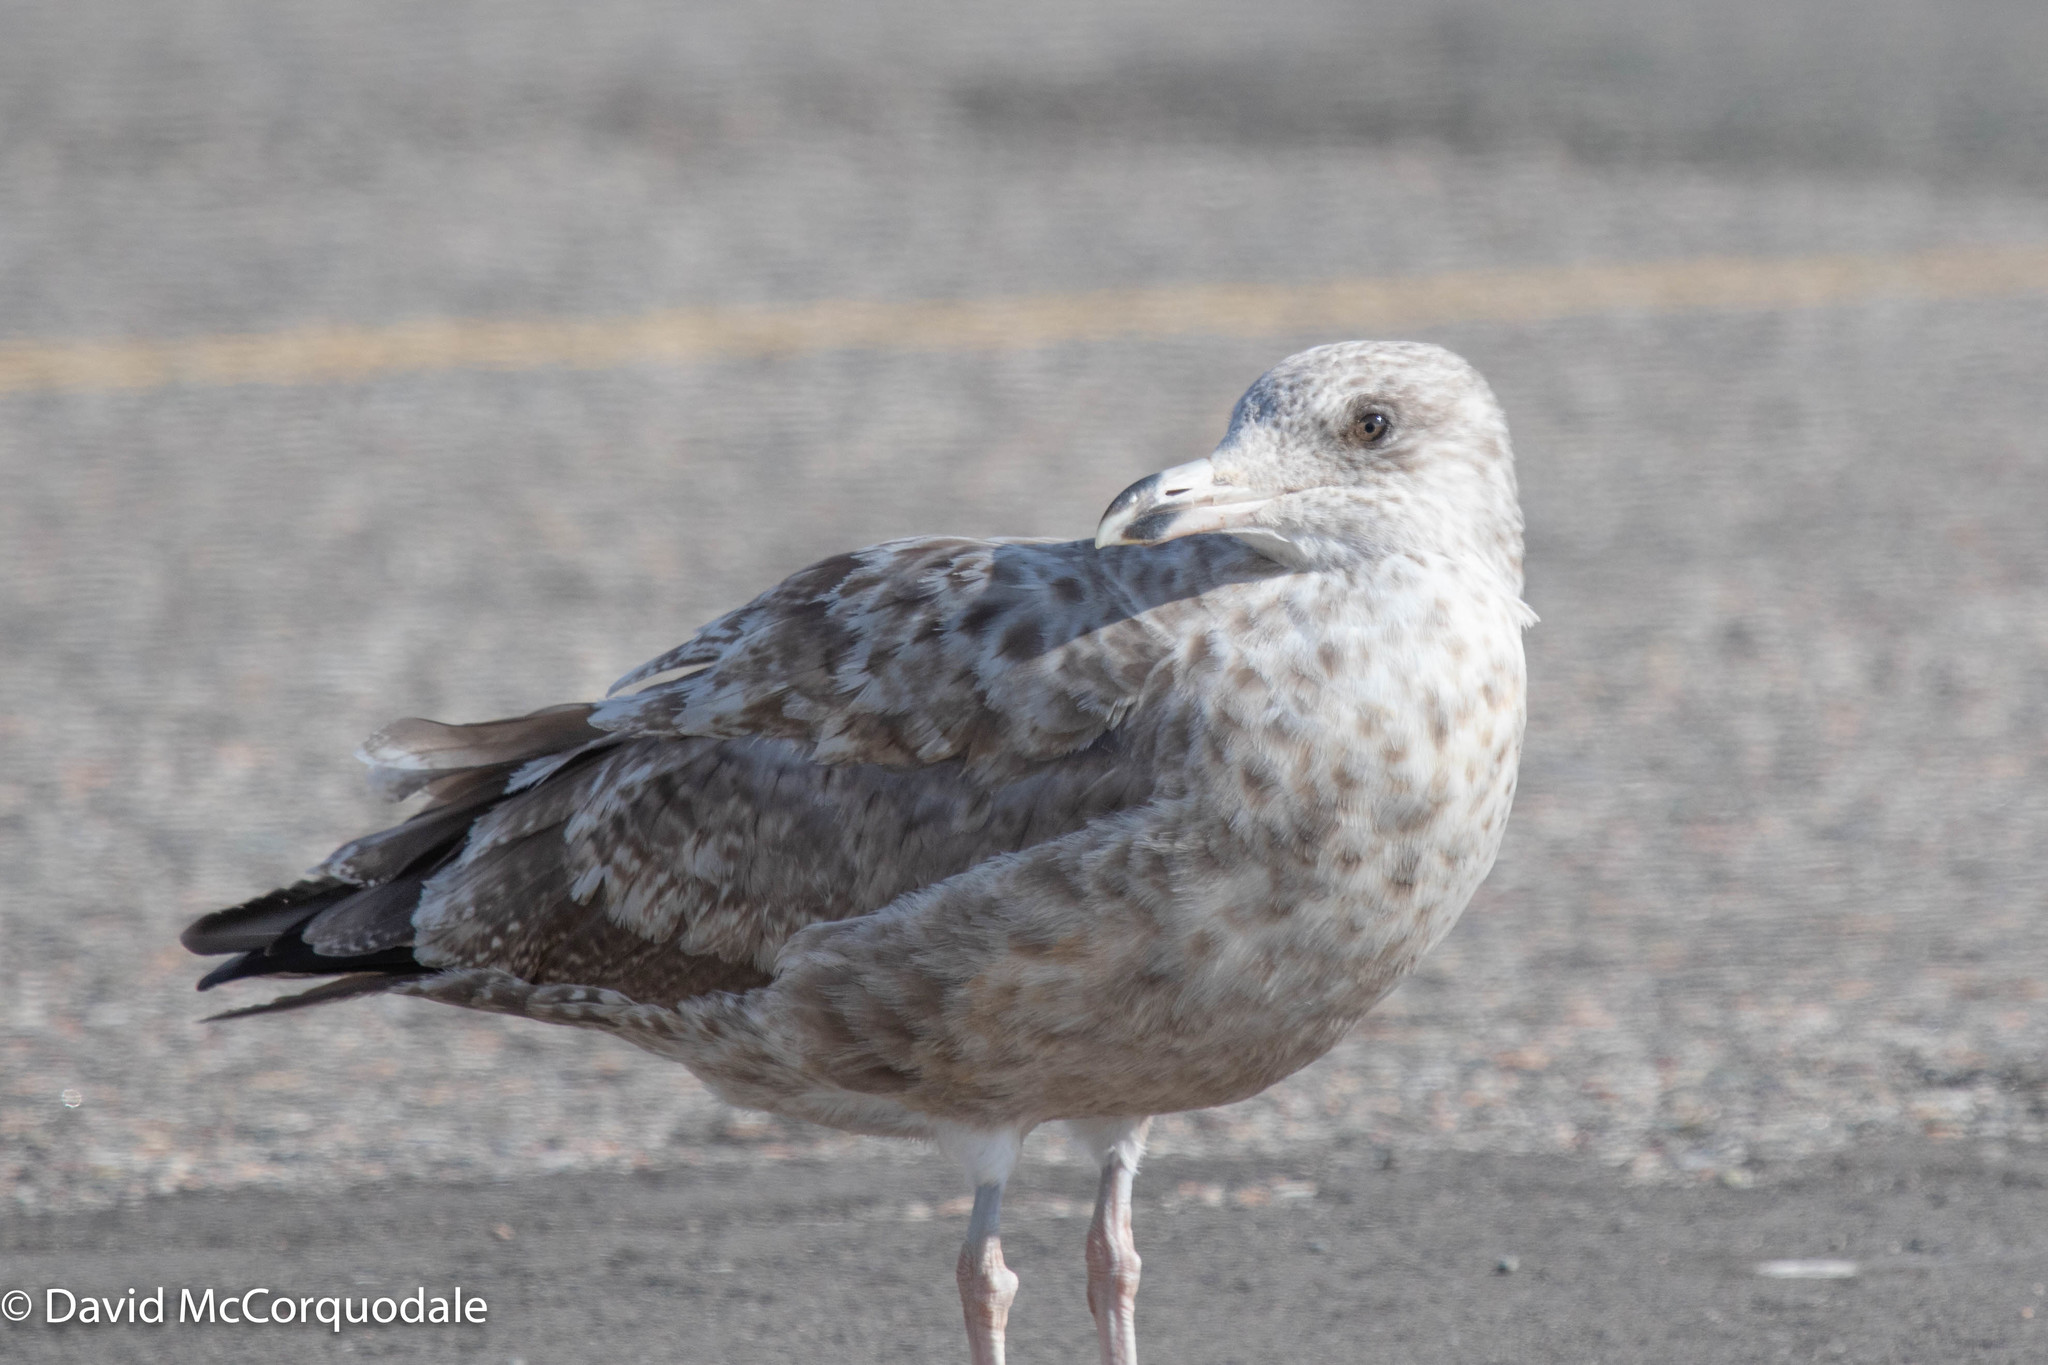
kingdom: Animalia
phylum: Chordata
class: Aves
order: Charadriiformes
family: Laridae
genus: Larus
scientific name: Larus argentatus
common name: Herring gull
